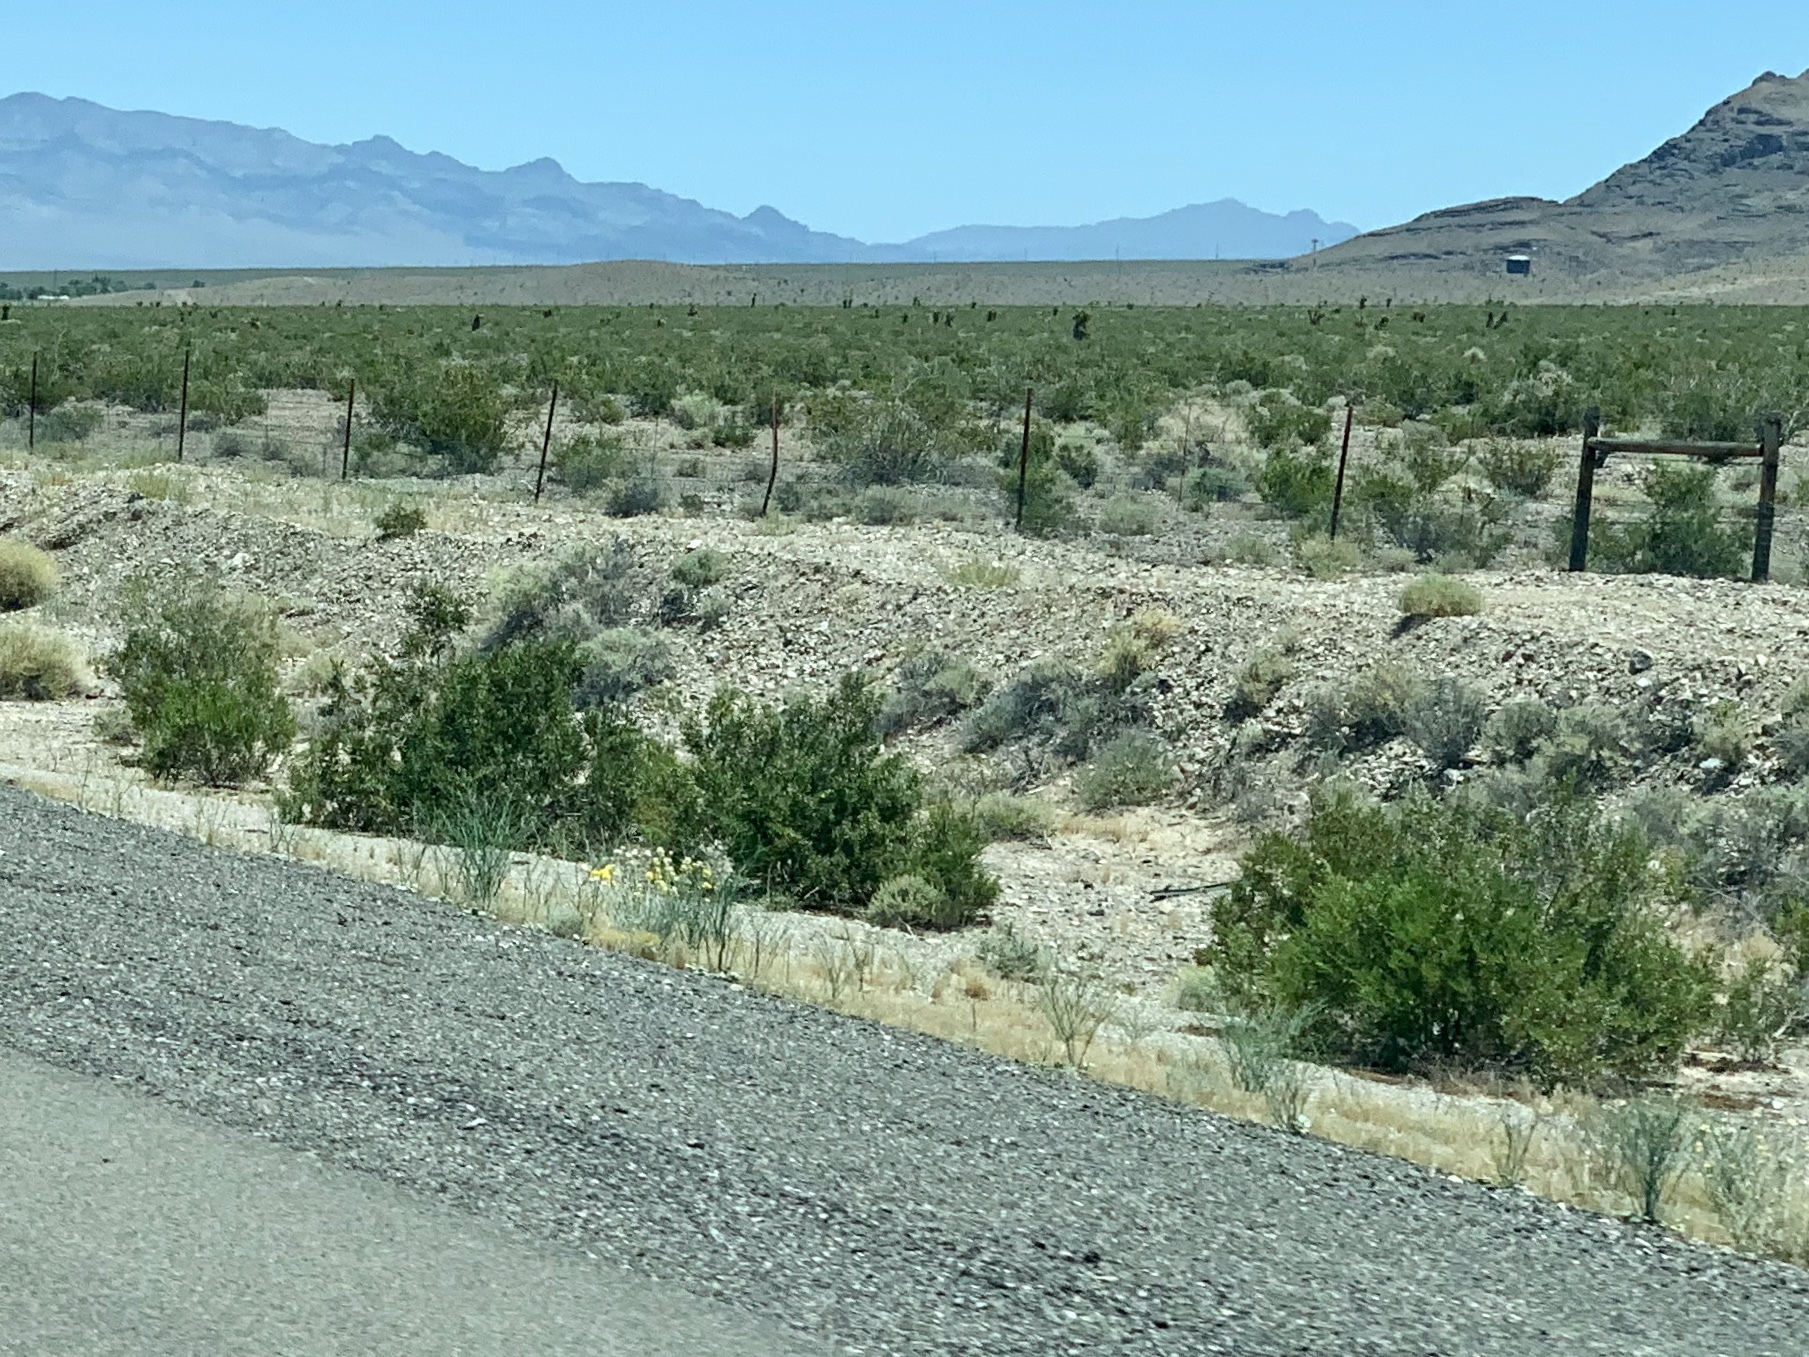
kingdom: Plantae
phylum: Tracheophyta
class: Magnoliopsida
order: Zygophyllales
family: Zygophyllaceae
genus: Larrea
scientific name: Larrea tridentata
